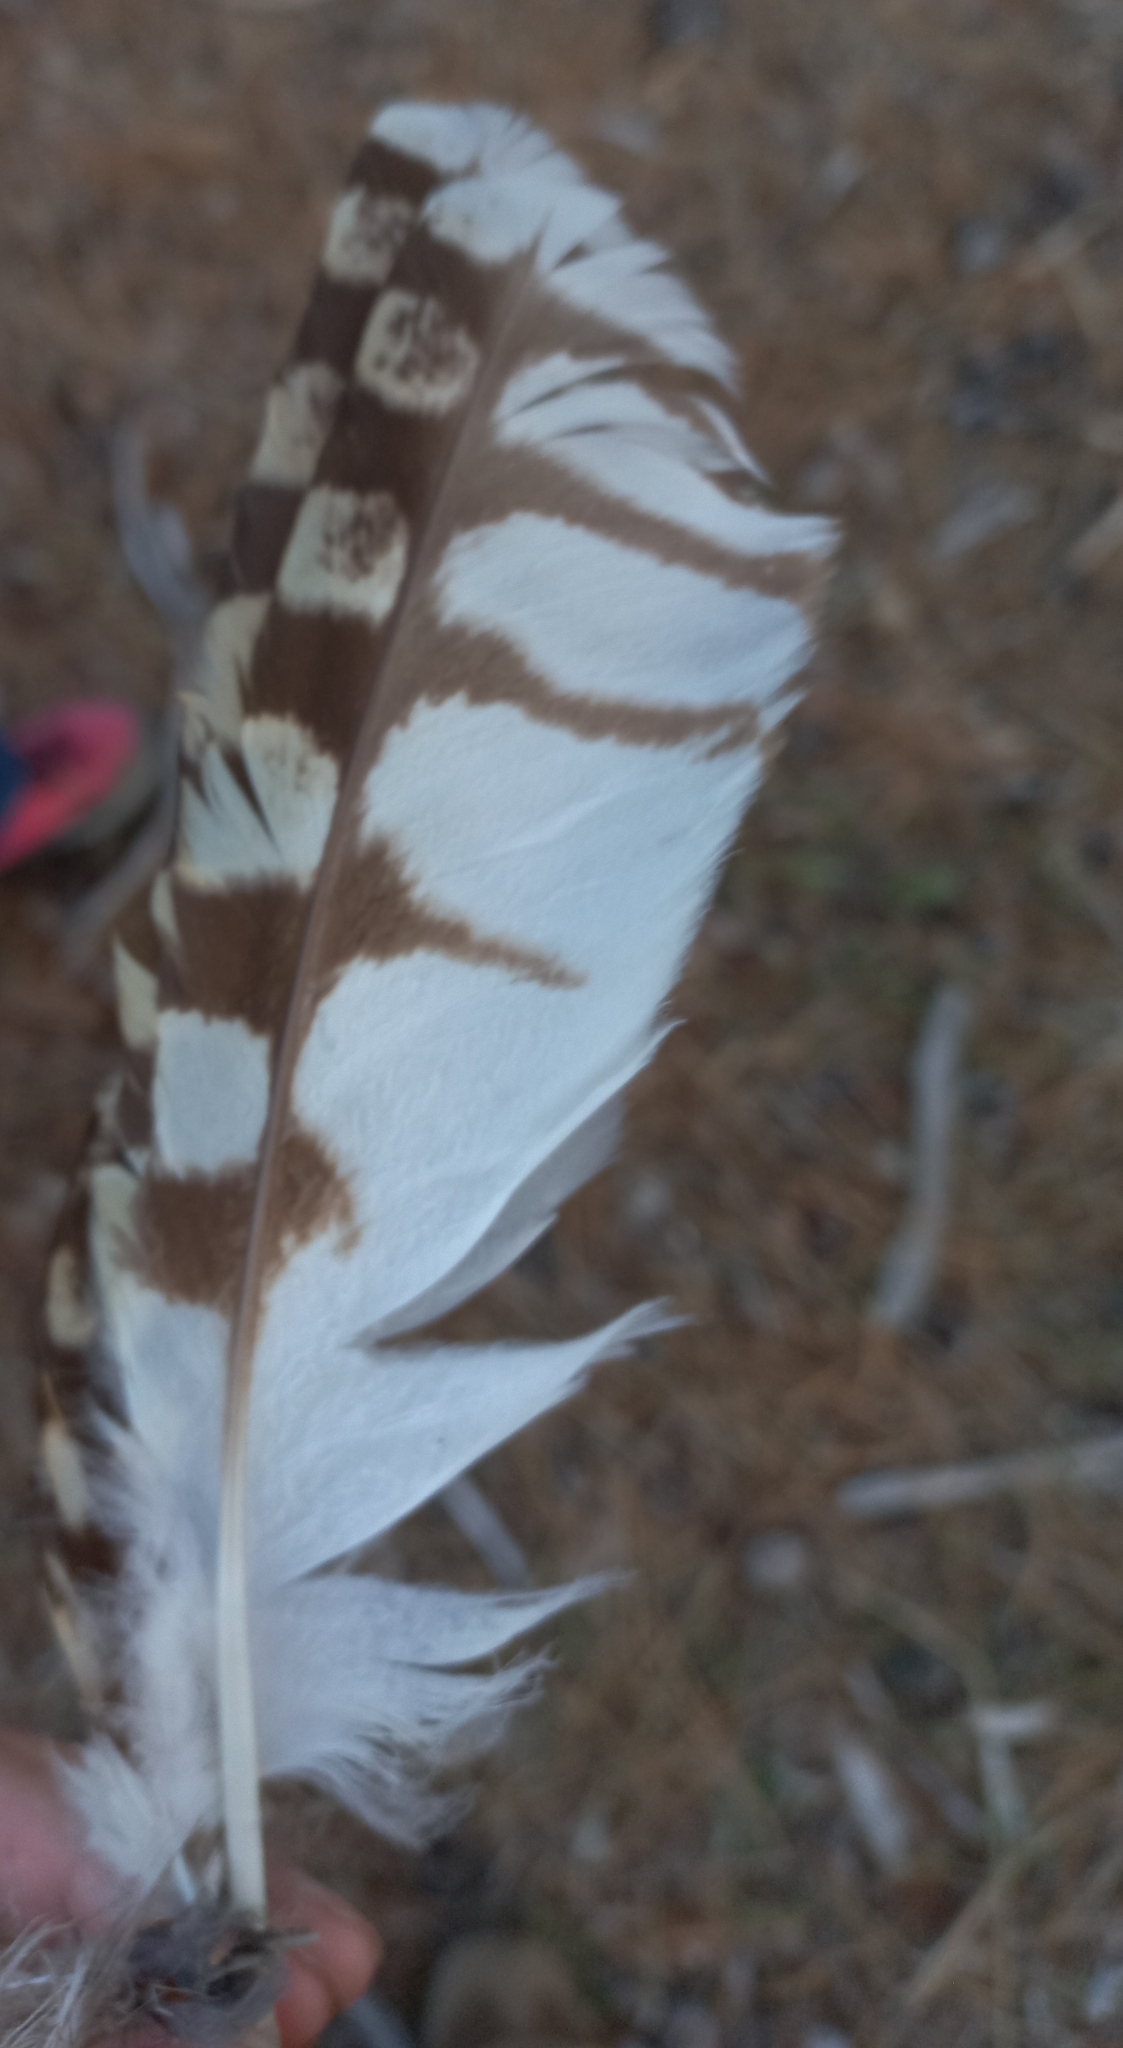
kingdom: Animalia
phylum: Chordata
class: Aves
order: Strigiformes
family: Strigidae
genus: Asio
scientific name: Asio flammeus
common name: Short-eared owl
